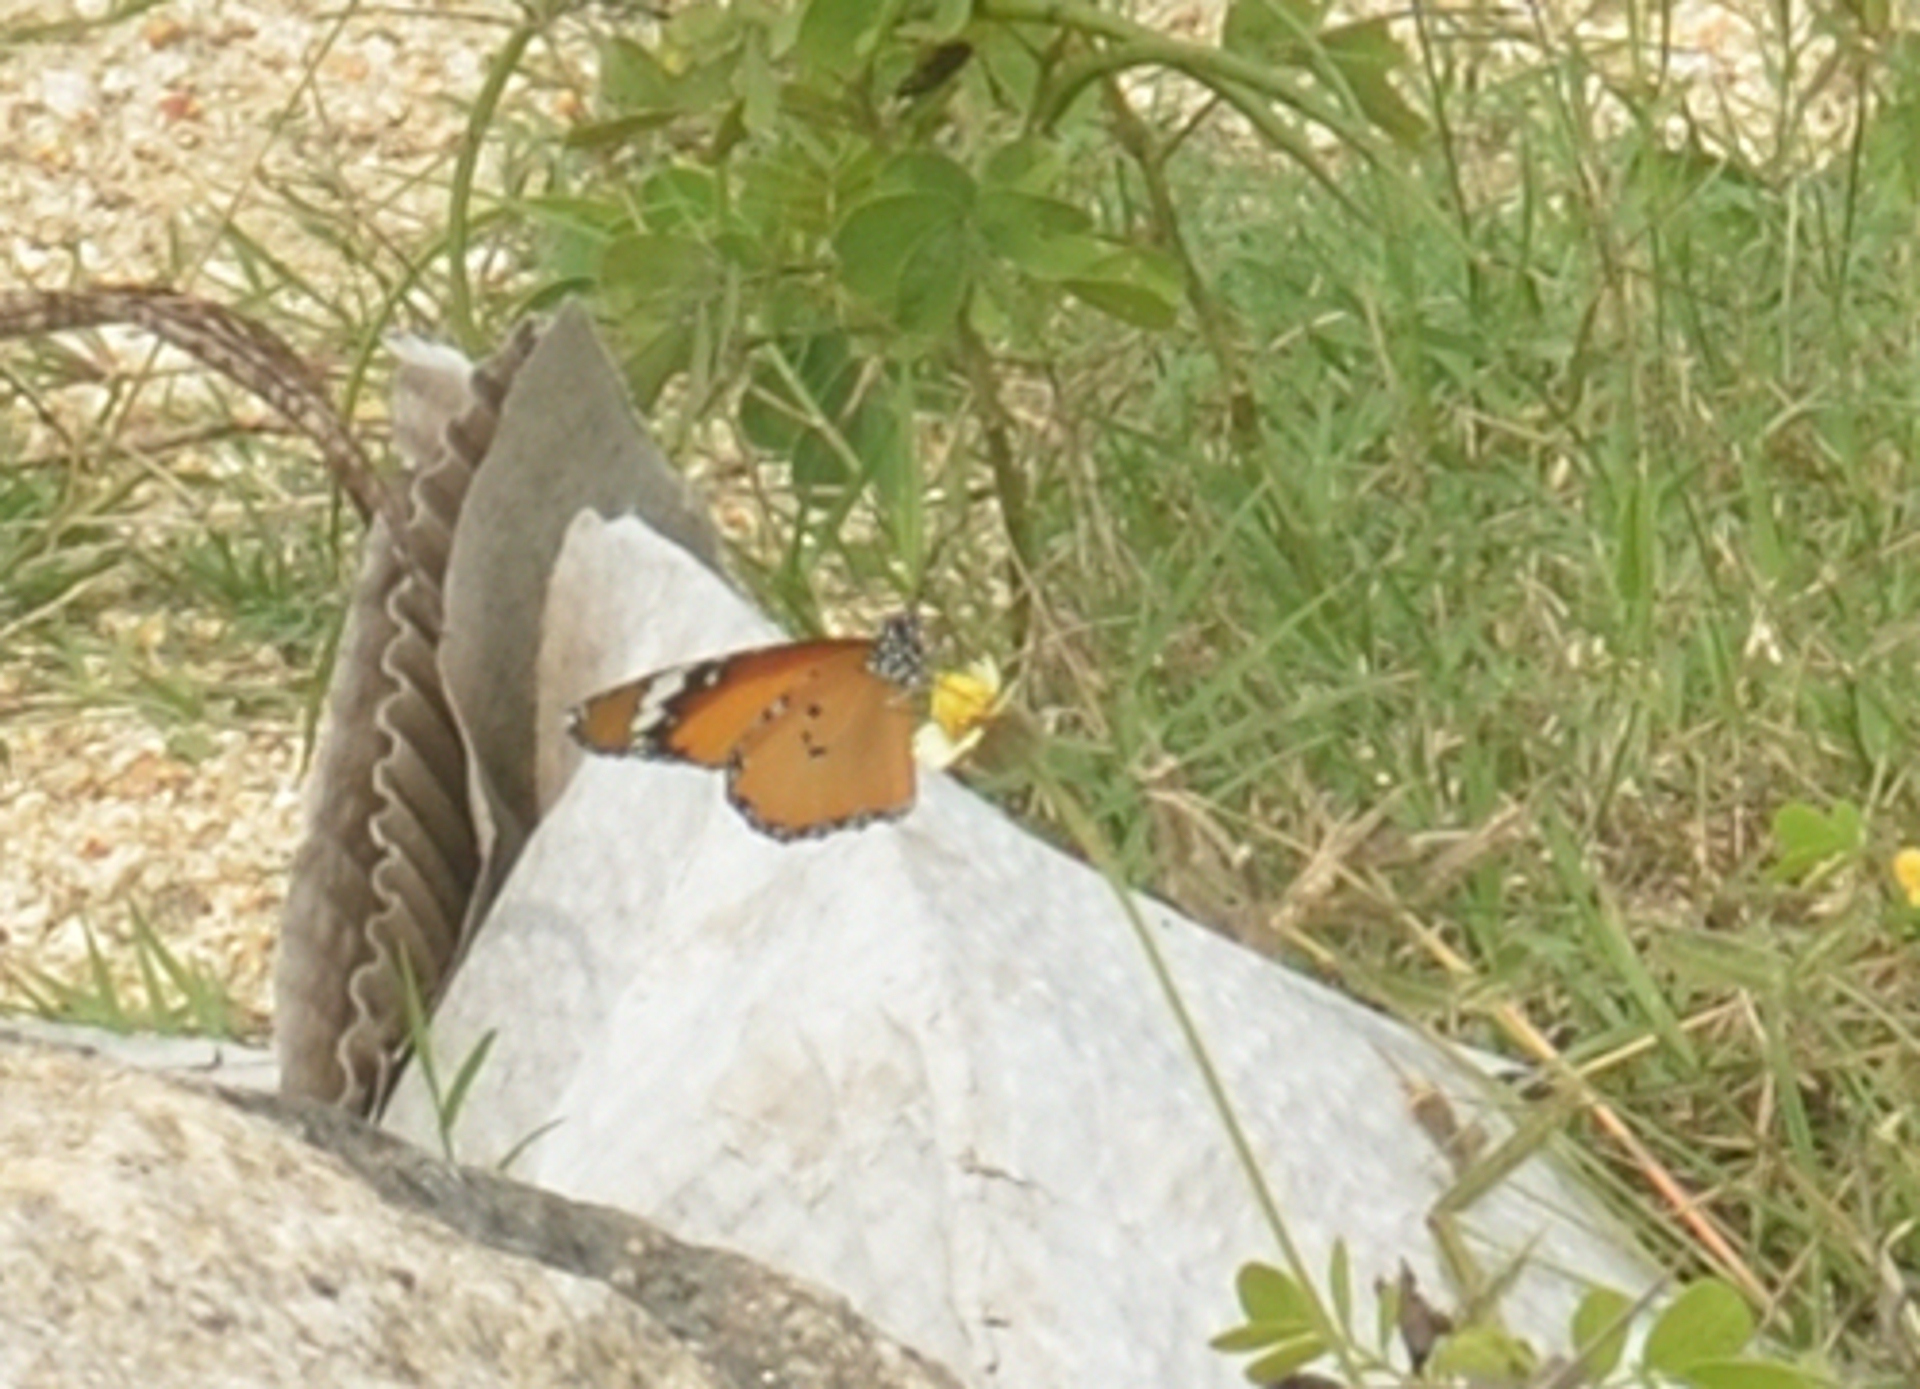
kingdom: Animalia
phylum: Arthropoda
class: Insecta
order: Lepidoptera
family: Nymphalidae
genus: Danaus
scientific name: Danaus chrysippus
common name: Plain tiger
